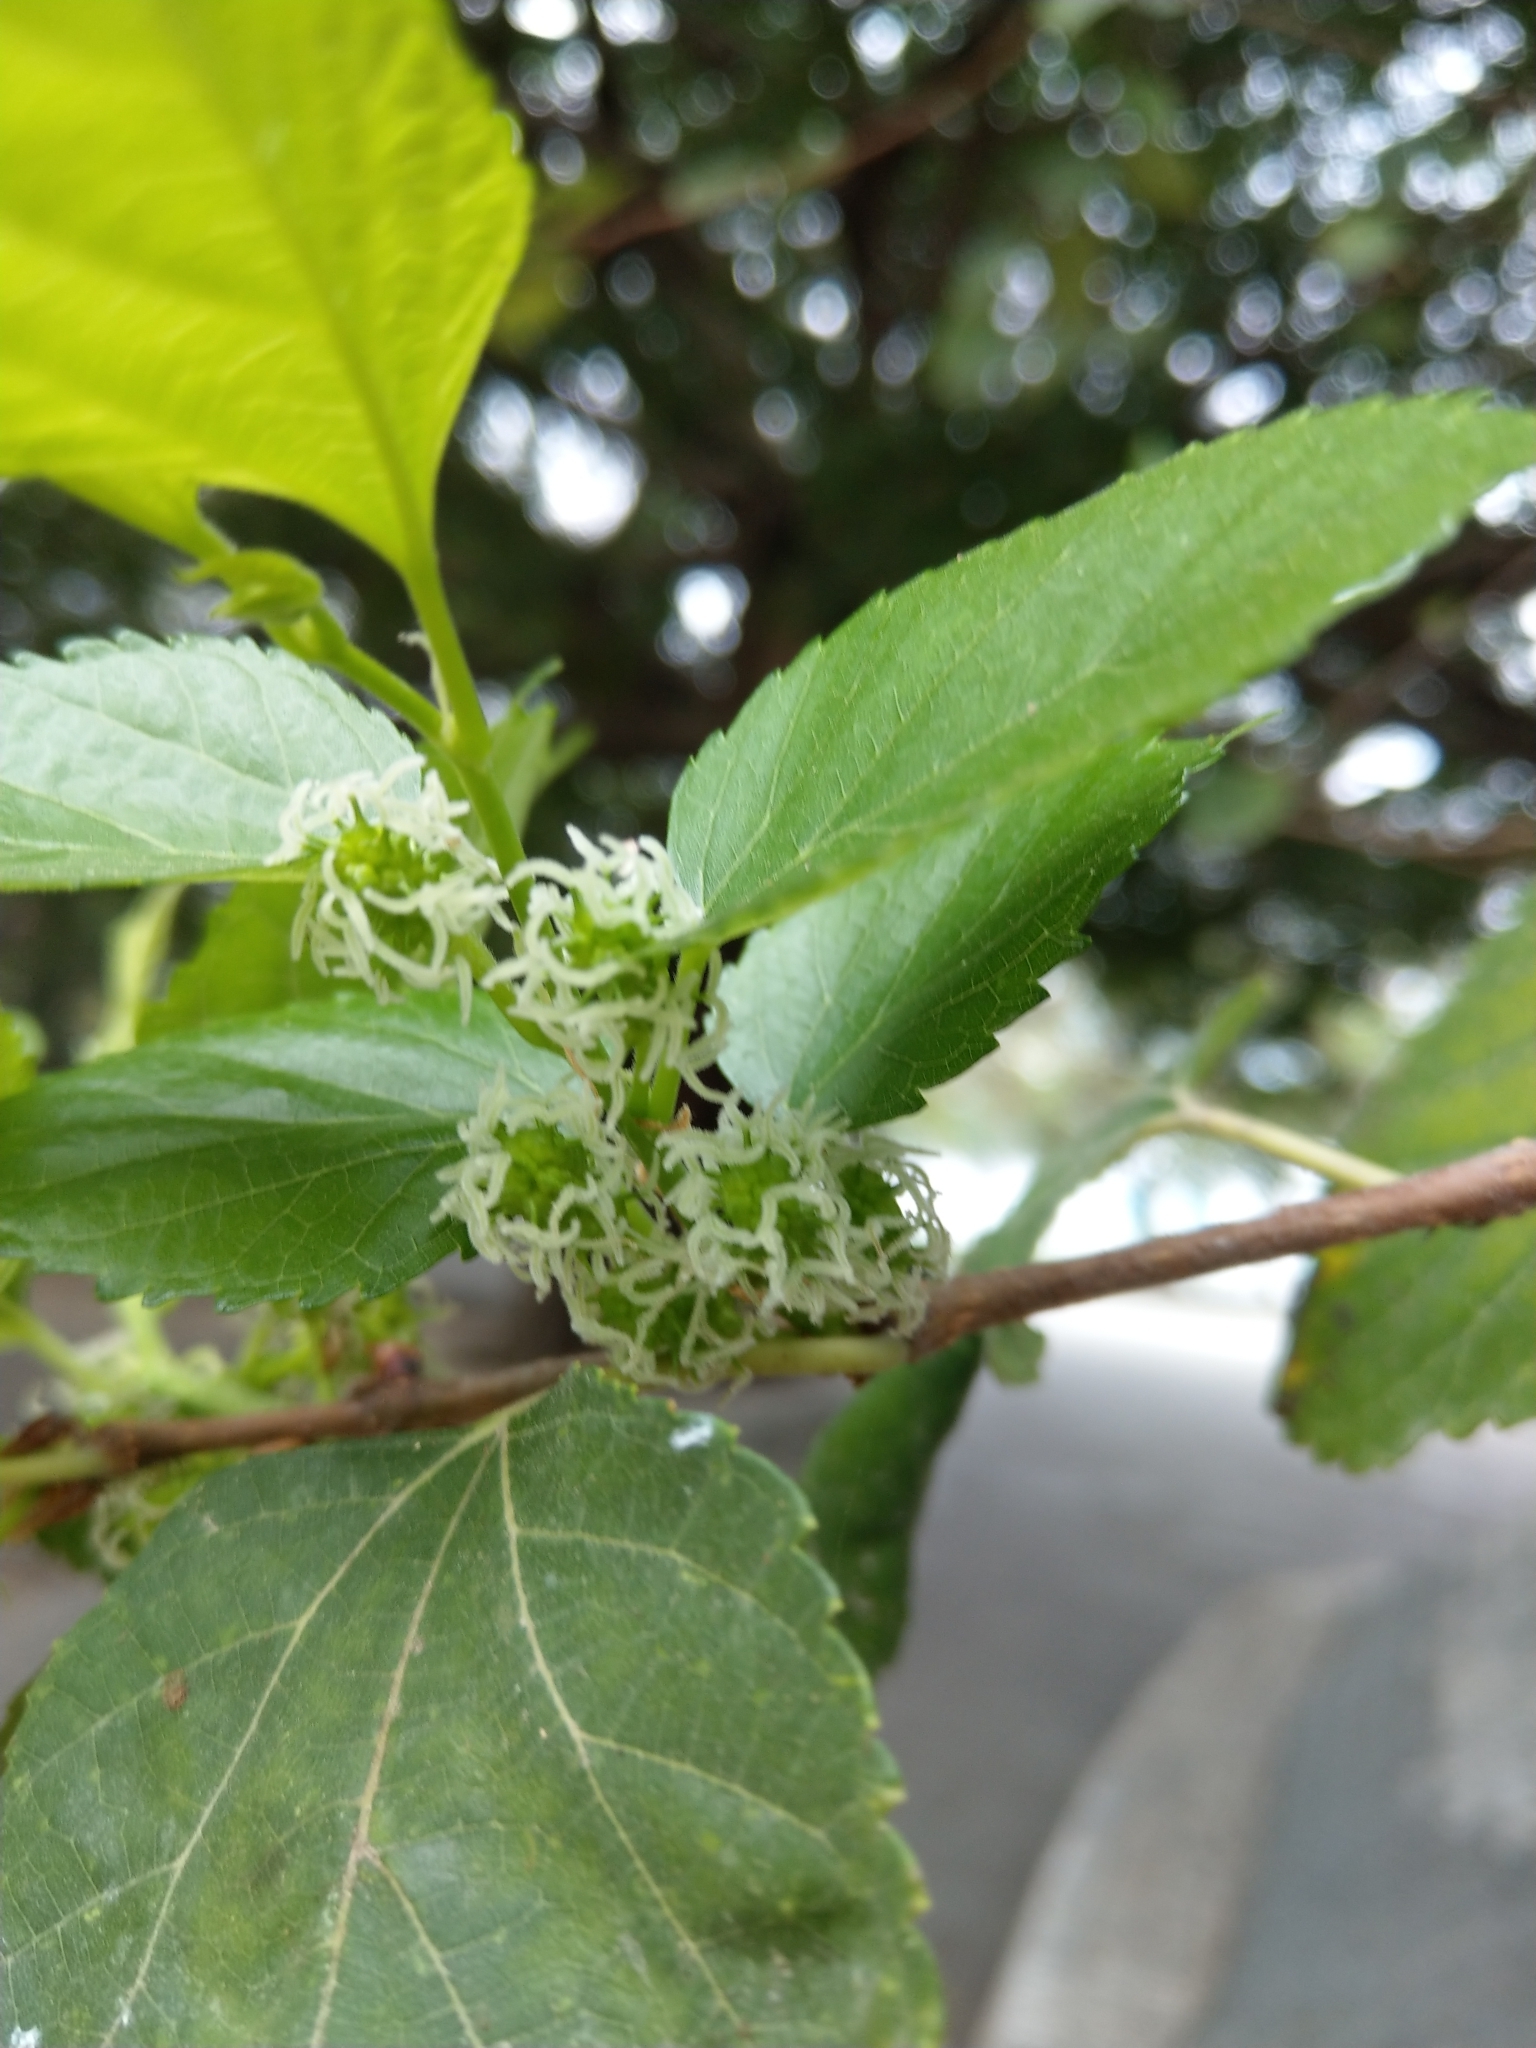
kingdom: Plantae
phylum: Tracheophyta
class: Magnoliopsida
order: Rosales
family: Moraceae
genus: Morus
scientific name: Morus indica
